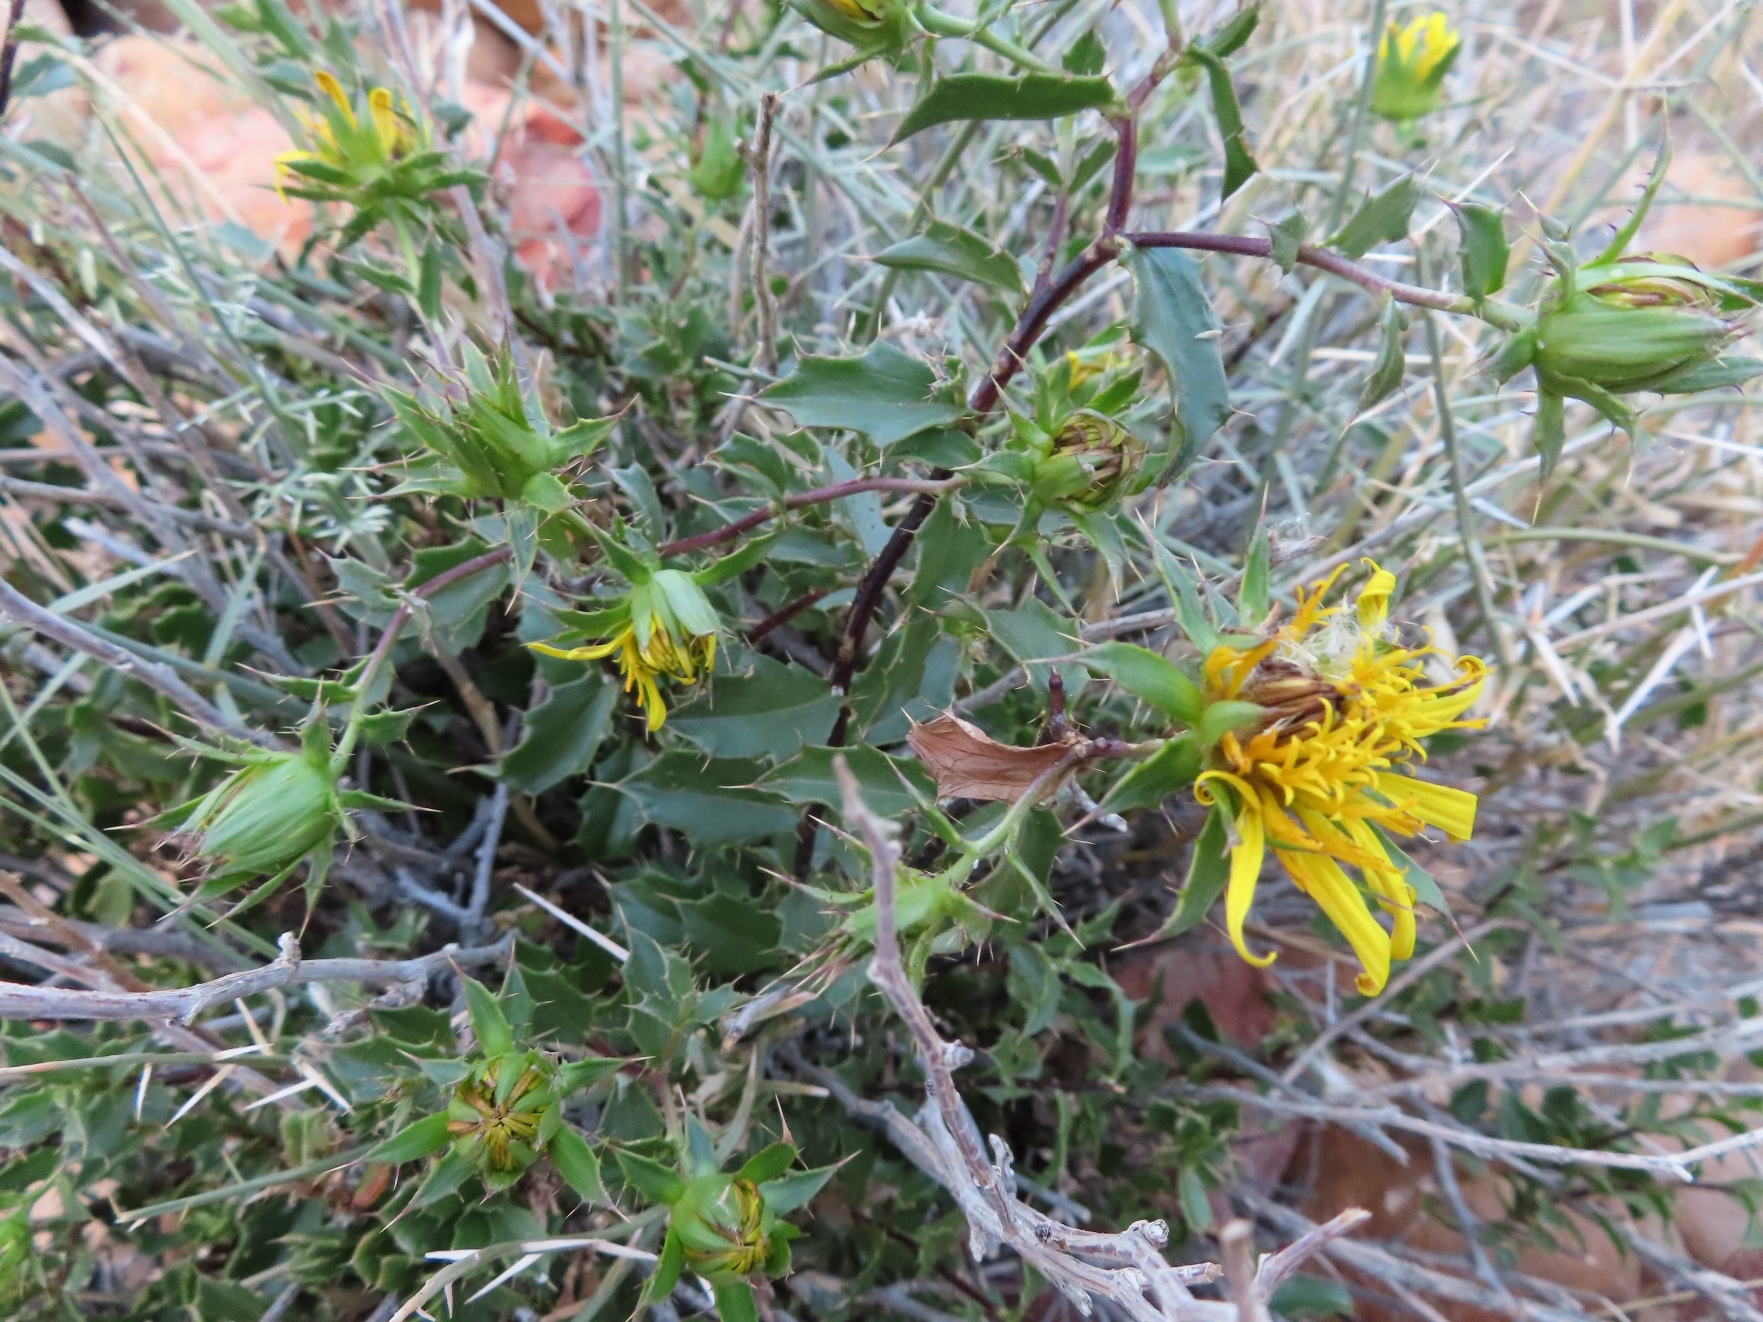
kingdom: Plantae
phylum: Tracheophyta
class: Magnoliopsida
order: Asterales
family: Asteraceae
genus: Berkheya
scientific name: Berkheya spinosa
